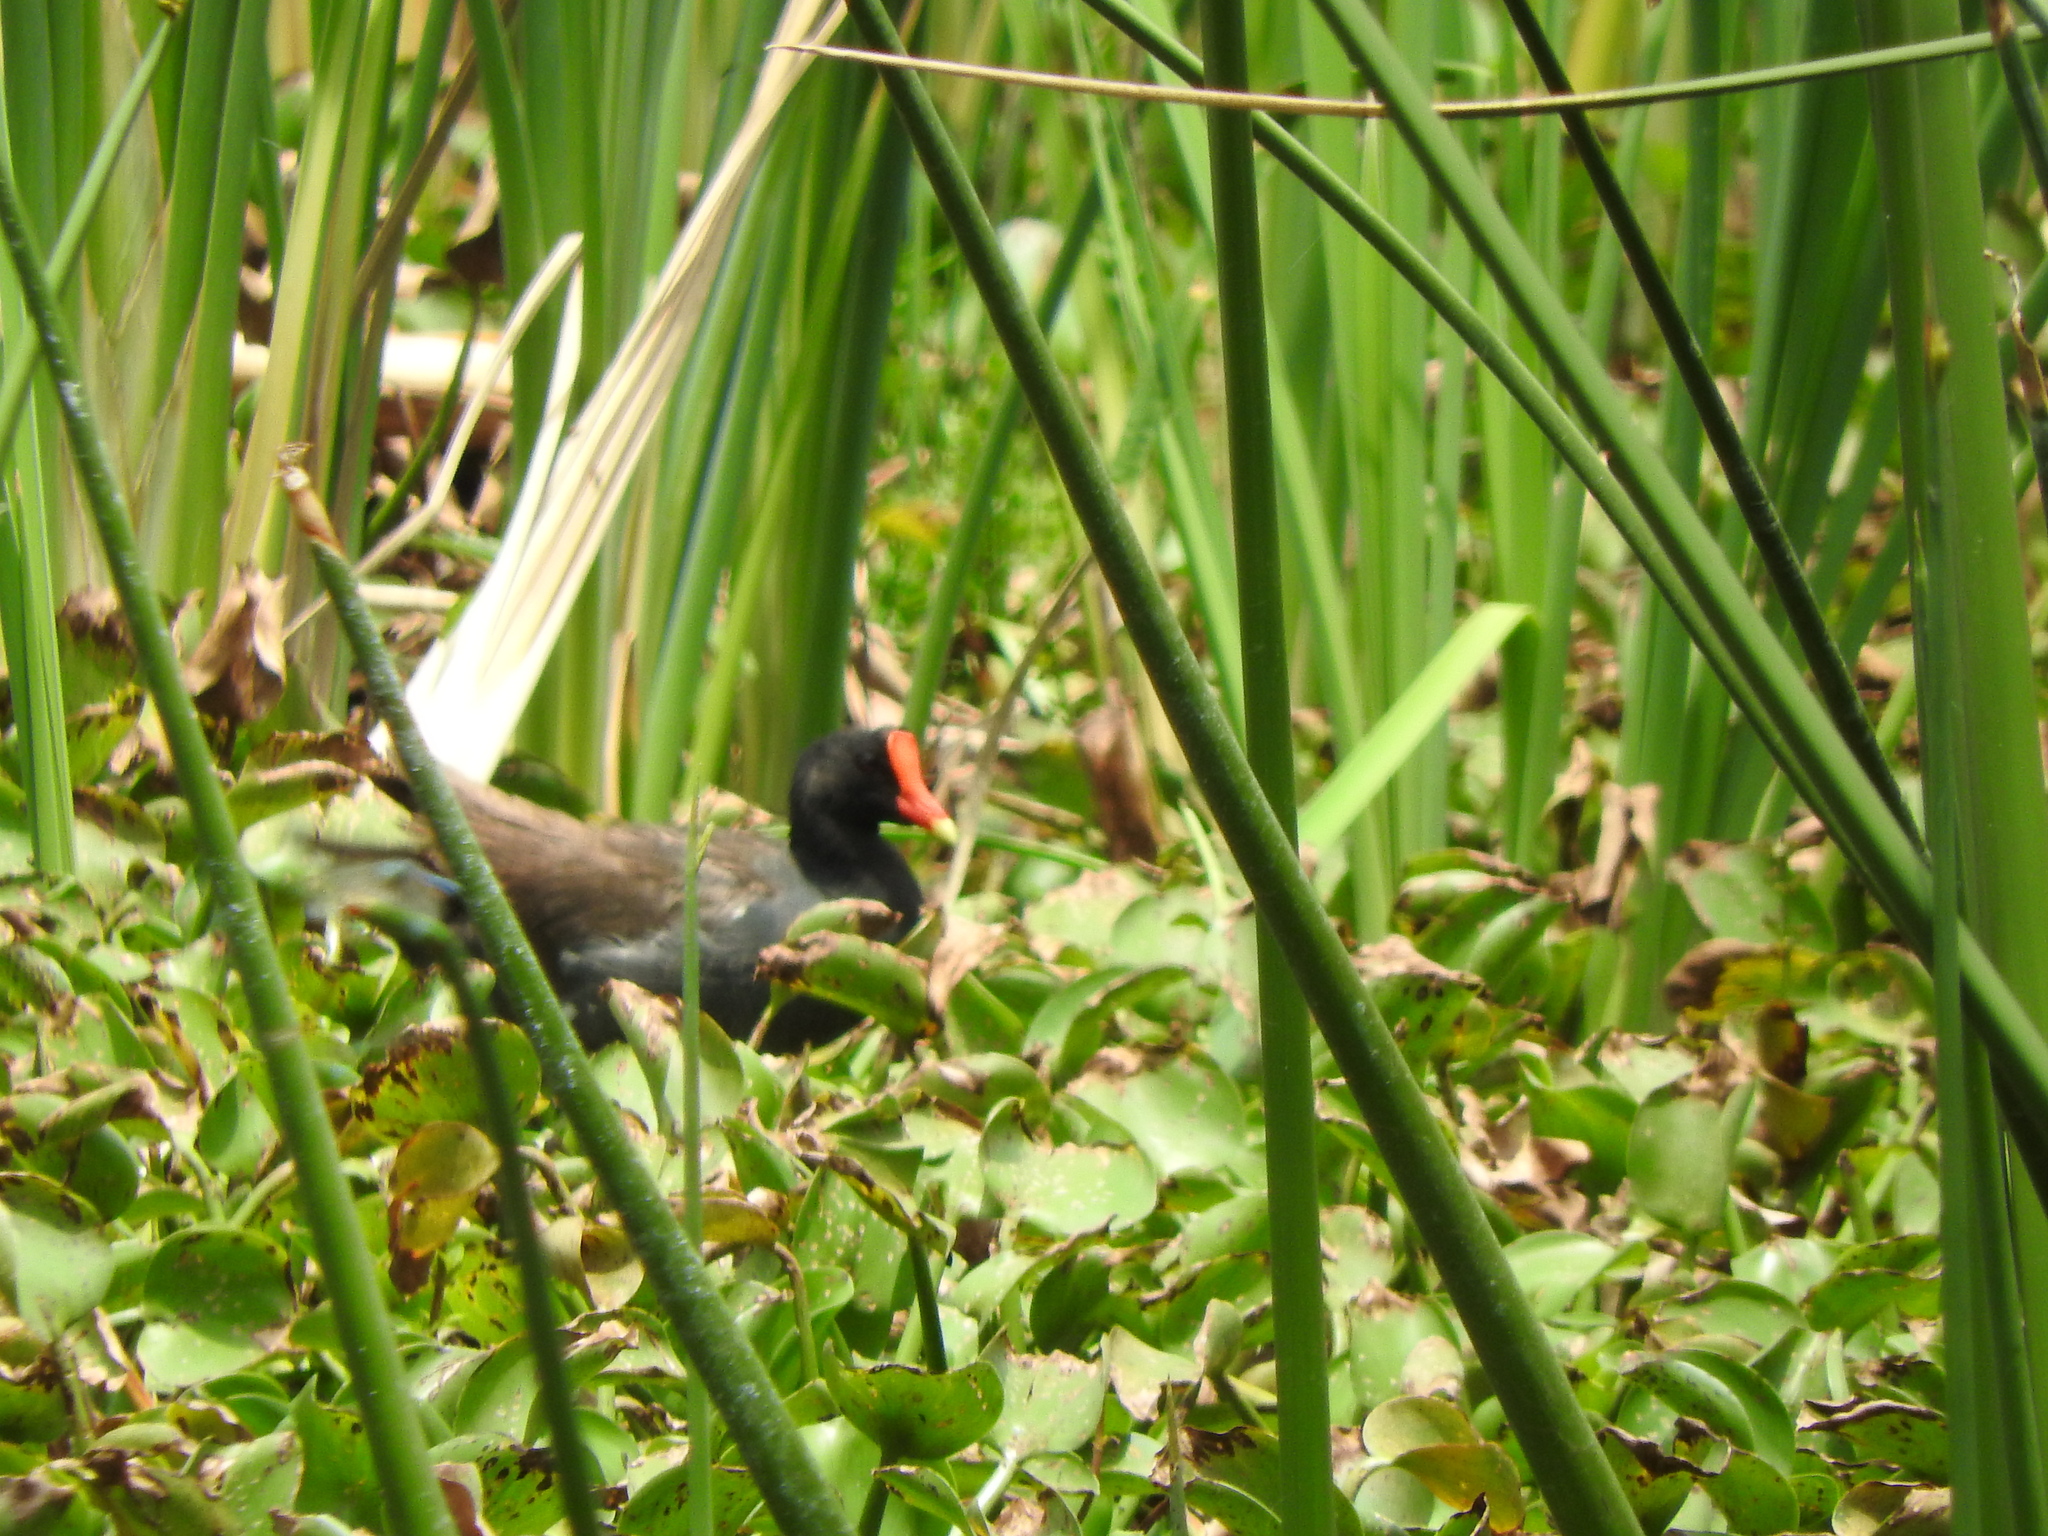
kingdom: Animalia
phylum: Chordata
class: Aves
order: Gruiformes
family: Rallidae
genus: Gallinula
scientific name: Gallinula chloropus
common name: Common moorhen
